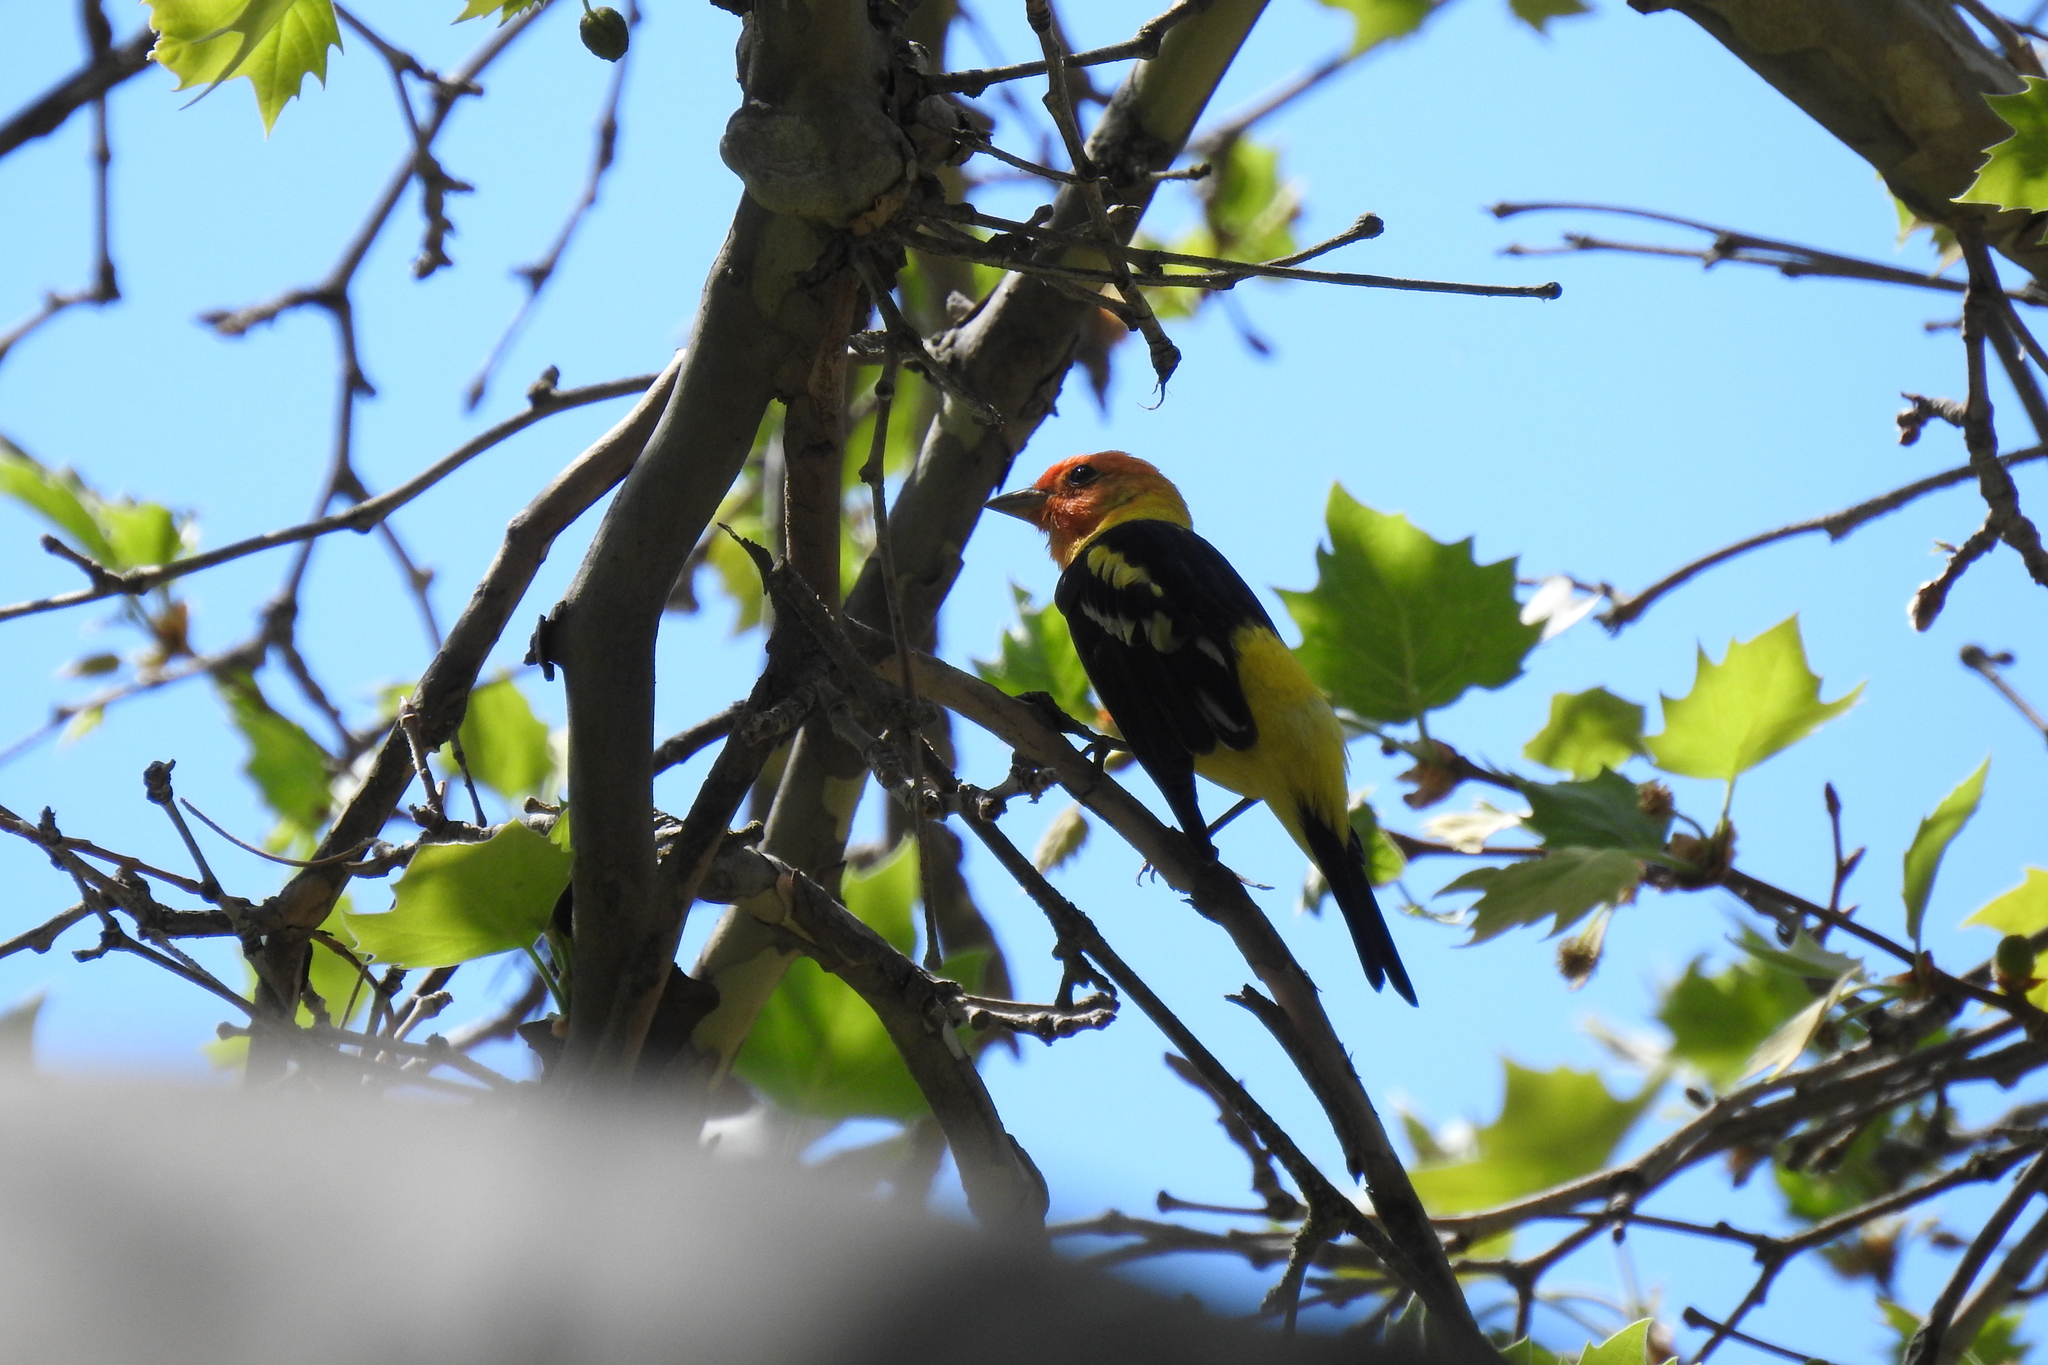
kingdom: Animalia
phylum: Chordata
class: Aves
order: Passeriformes
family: Cardinalidae
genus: Piranga
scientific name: Piranga ludoviciana
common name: Western tanager
